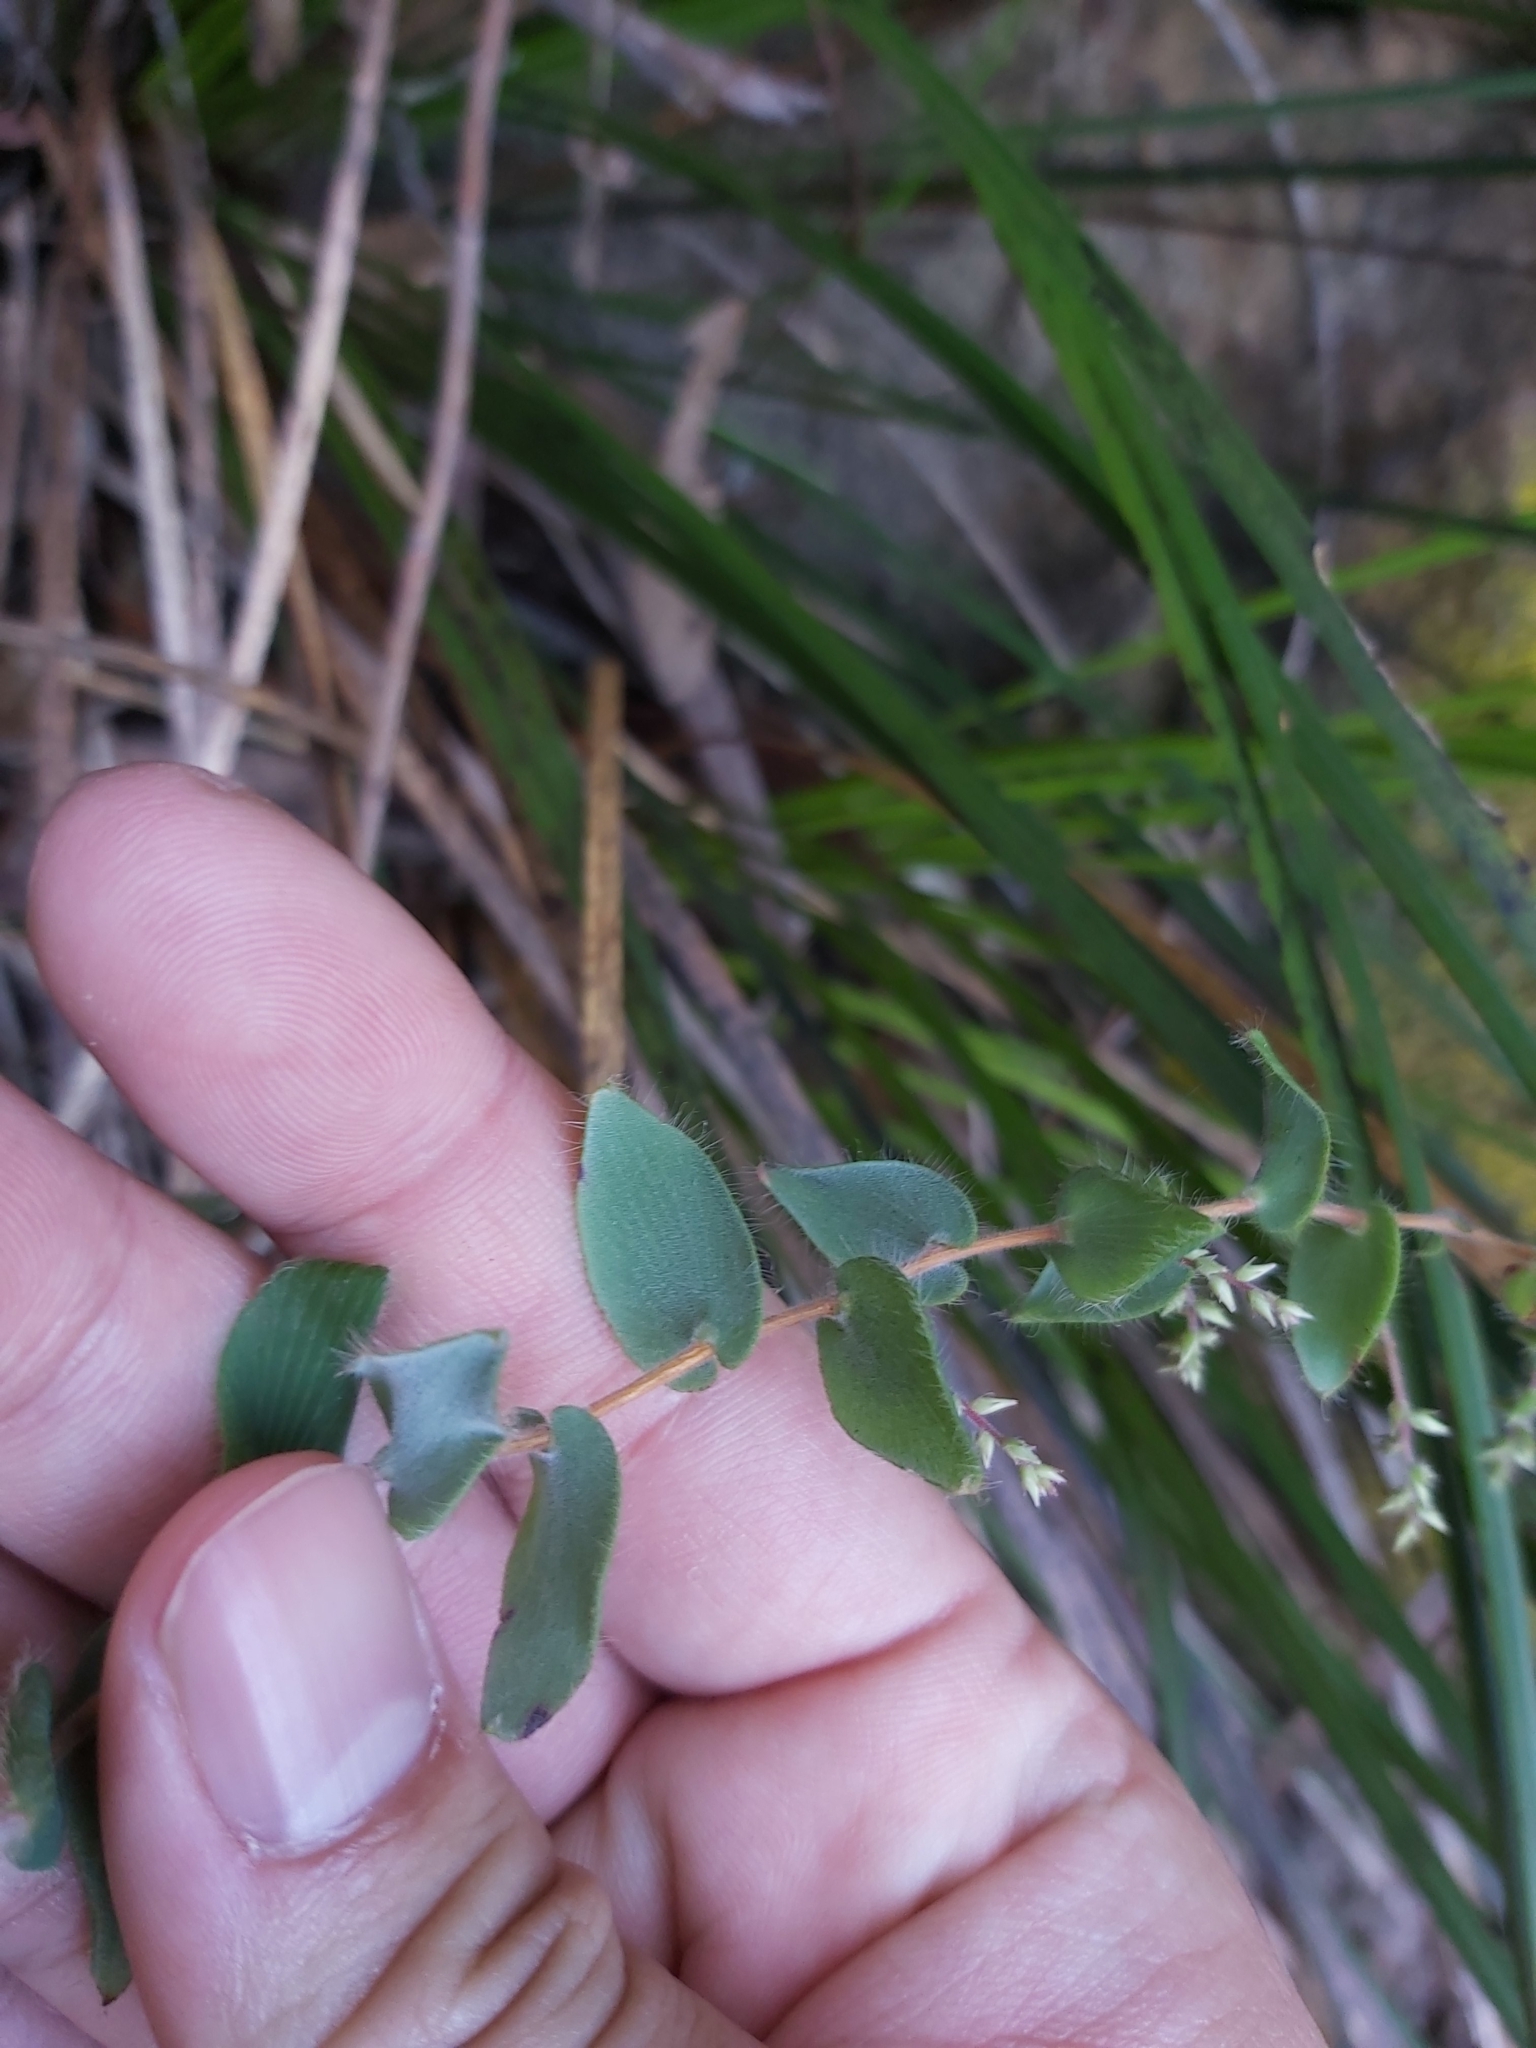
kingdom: Plantae
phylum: Tracheophyta
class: Magnoliopsida
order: Ericales
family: Ericaceae
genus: Leucopogon
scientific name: Leucopogon amplexicaulis
